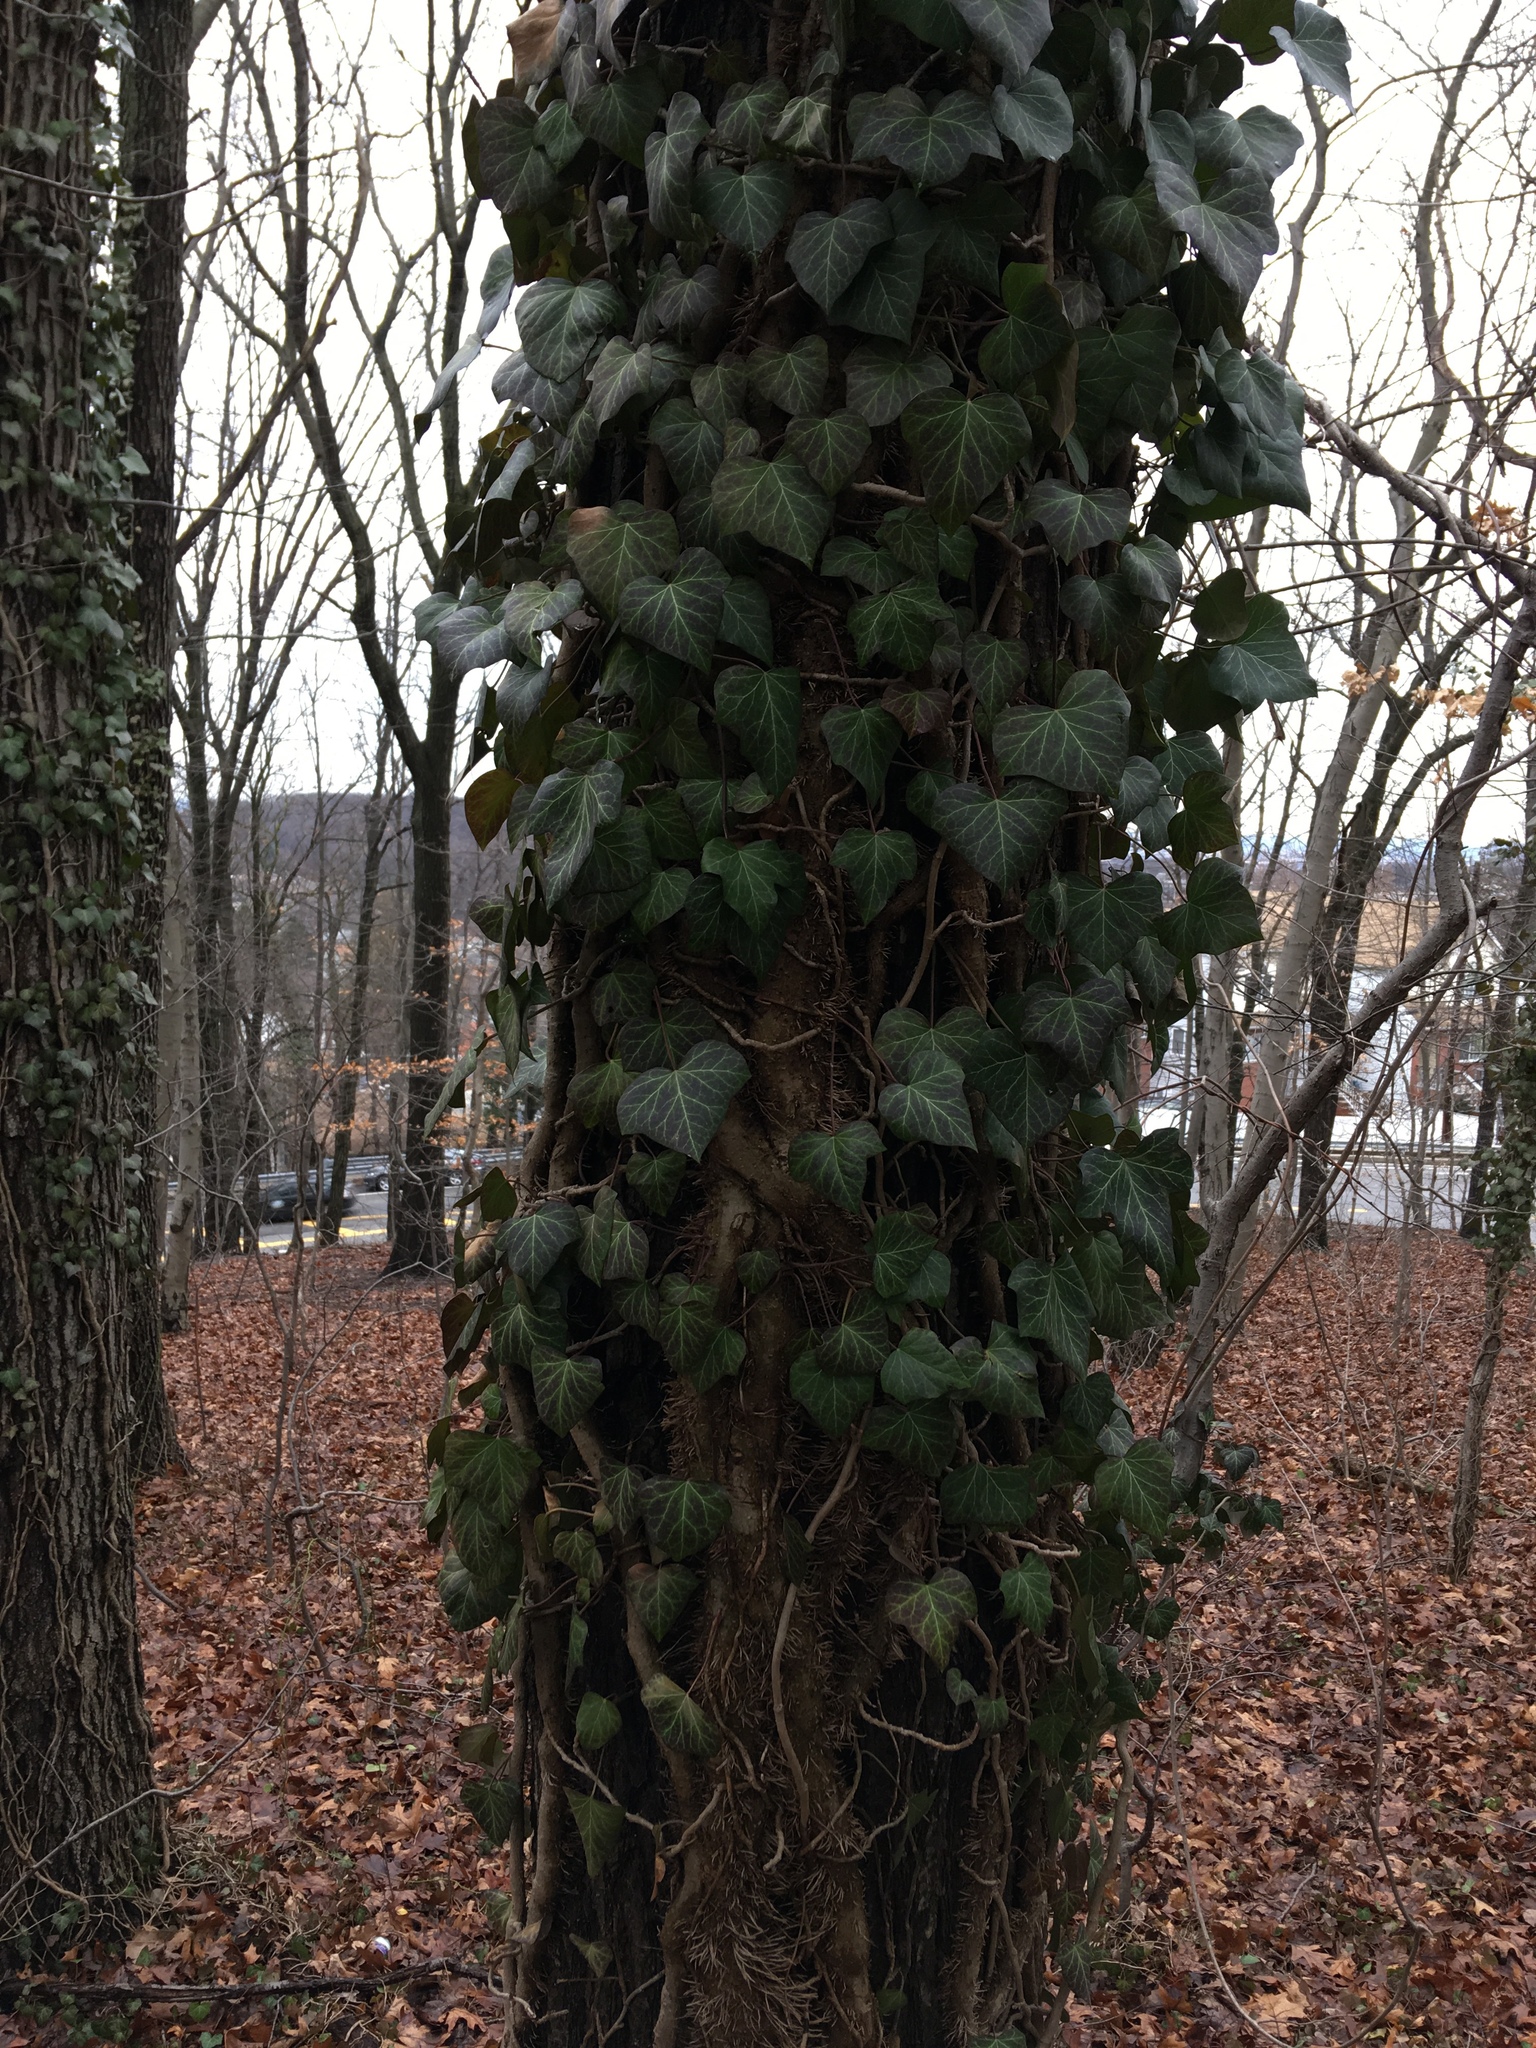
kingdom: Plantae
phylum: Tracheophyta
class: Magnoliopsida
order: Apiales
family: Araliaceae
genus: Hedera
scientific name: Hedera helix
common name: Ivy
